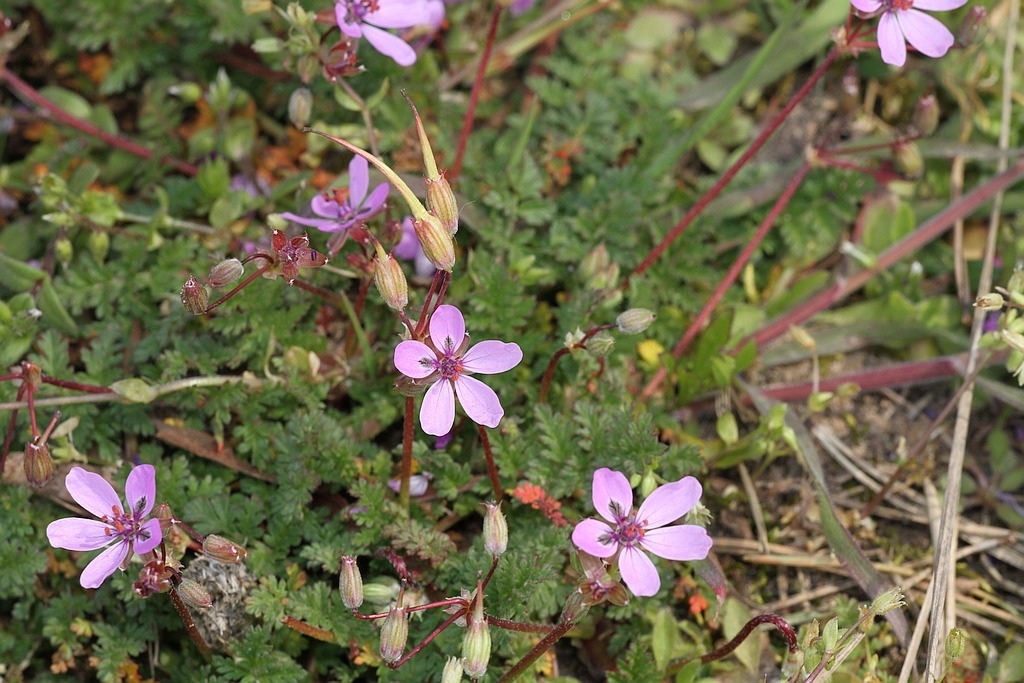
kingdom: Plantae
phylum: Tracheophyta
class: Magnoliopsida
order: Geraniales
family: Geraniaceae
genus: Erodium
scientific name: Erodium cicutarium
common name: Common stork's-bill
